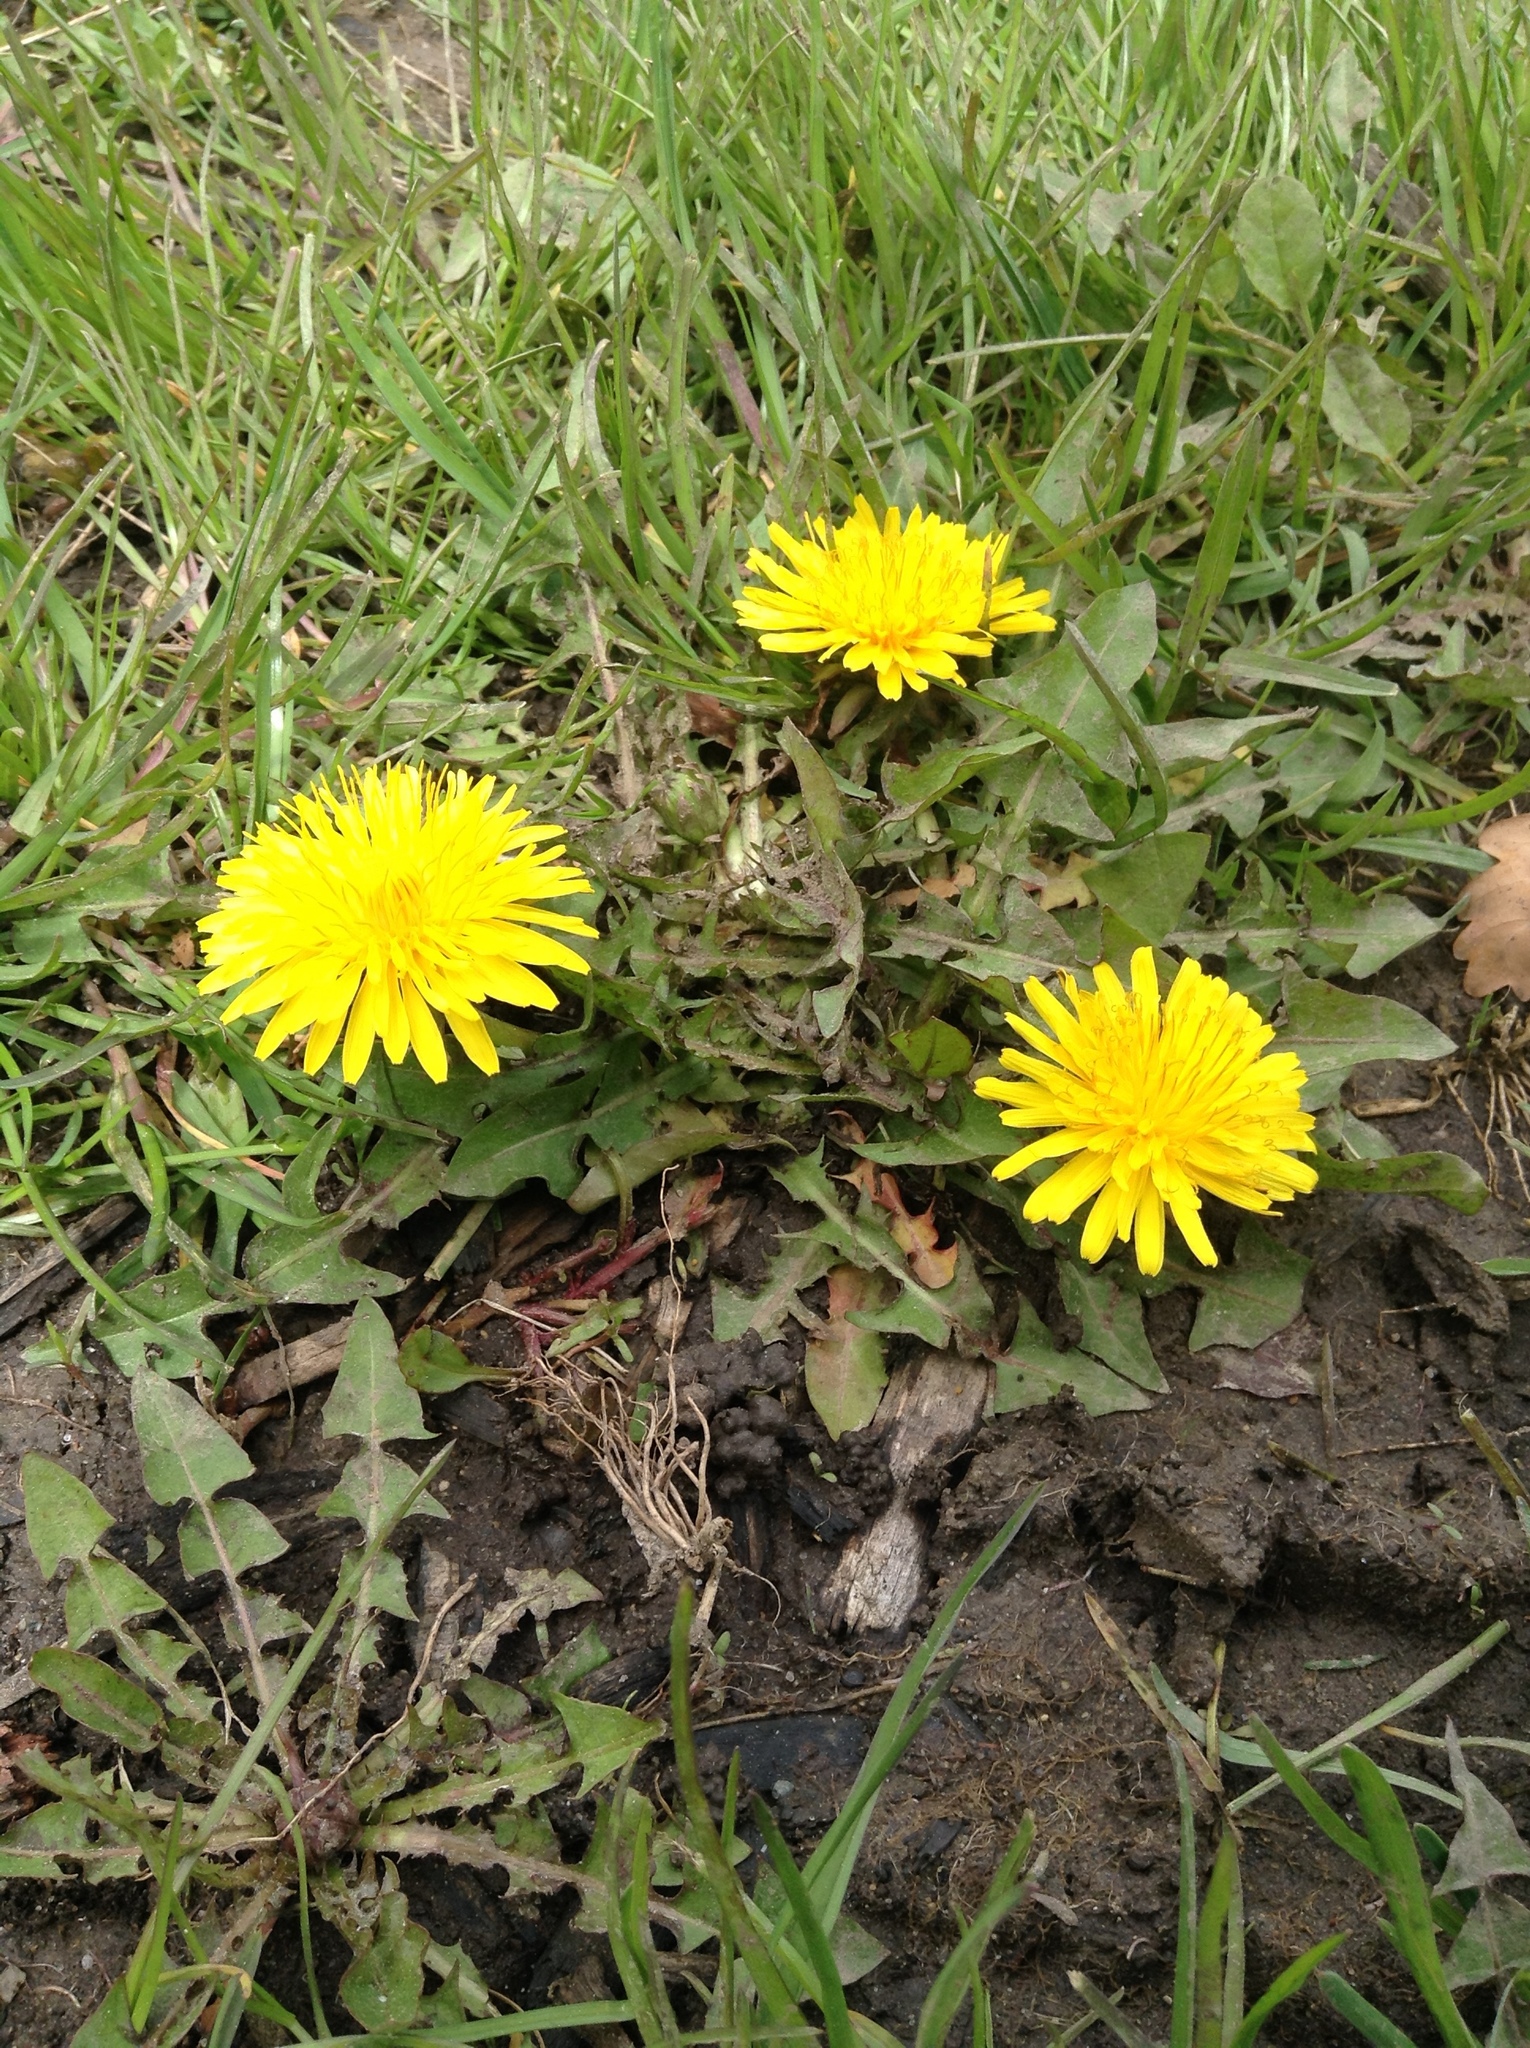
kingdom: Plantae
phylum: Tracheophyta
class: Magnoliopsida
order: Asterales
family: Asteraceae
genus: Taraxacum
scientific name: Taraxacum officinale
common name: Common dandelion
